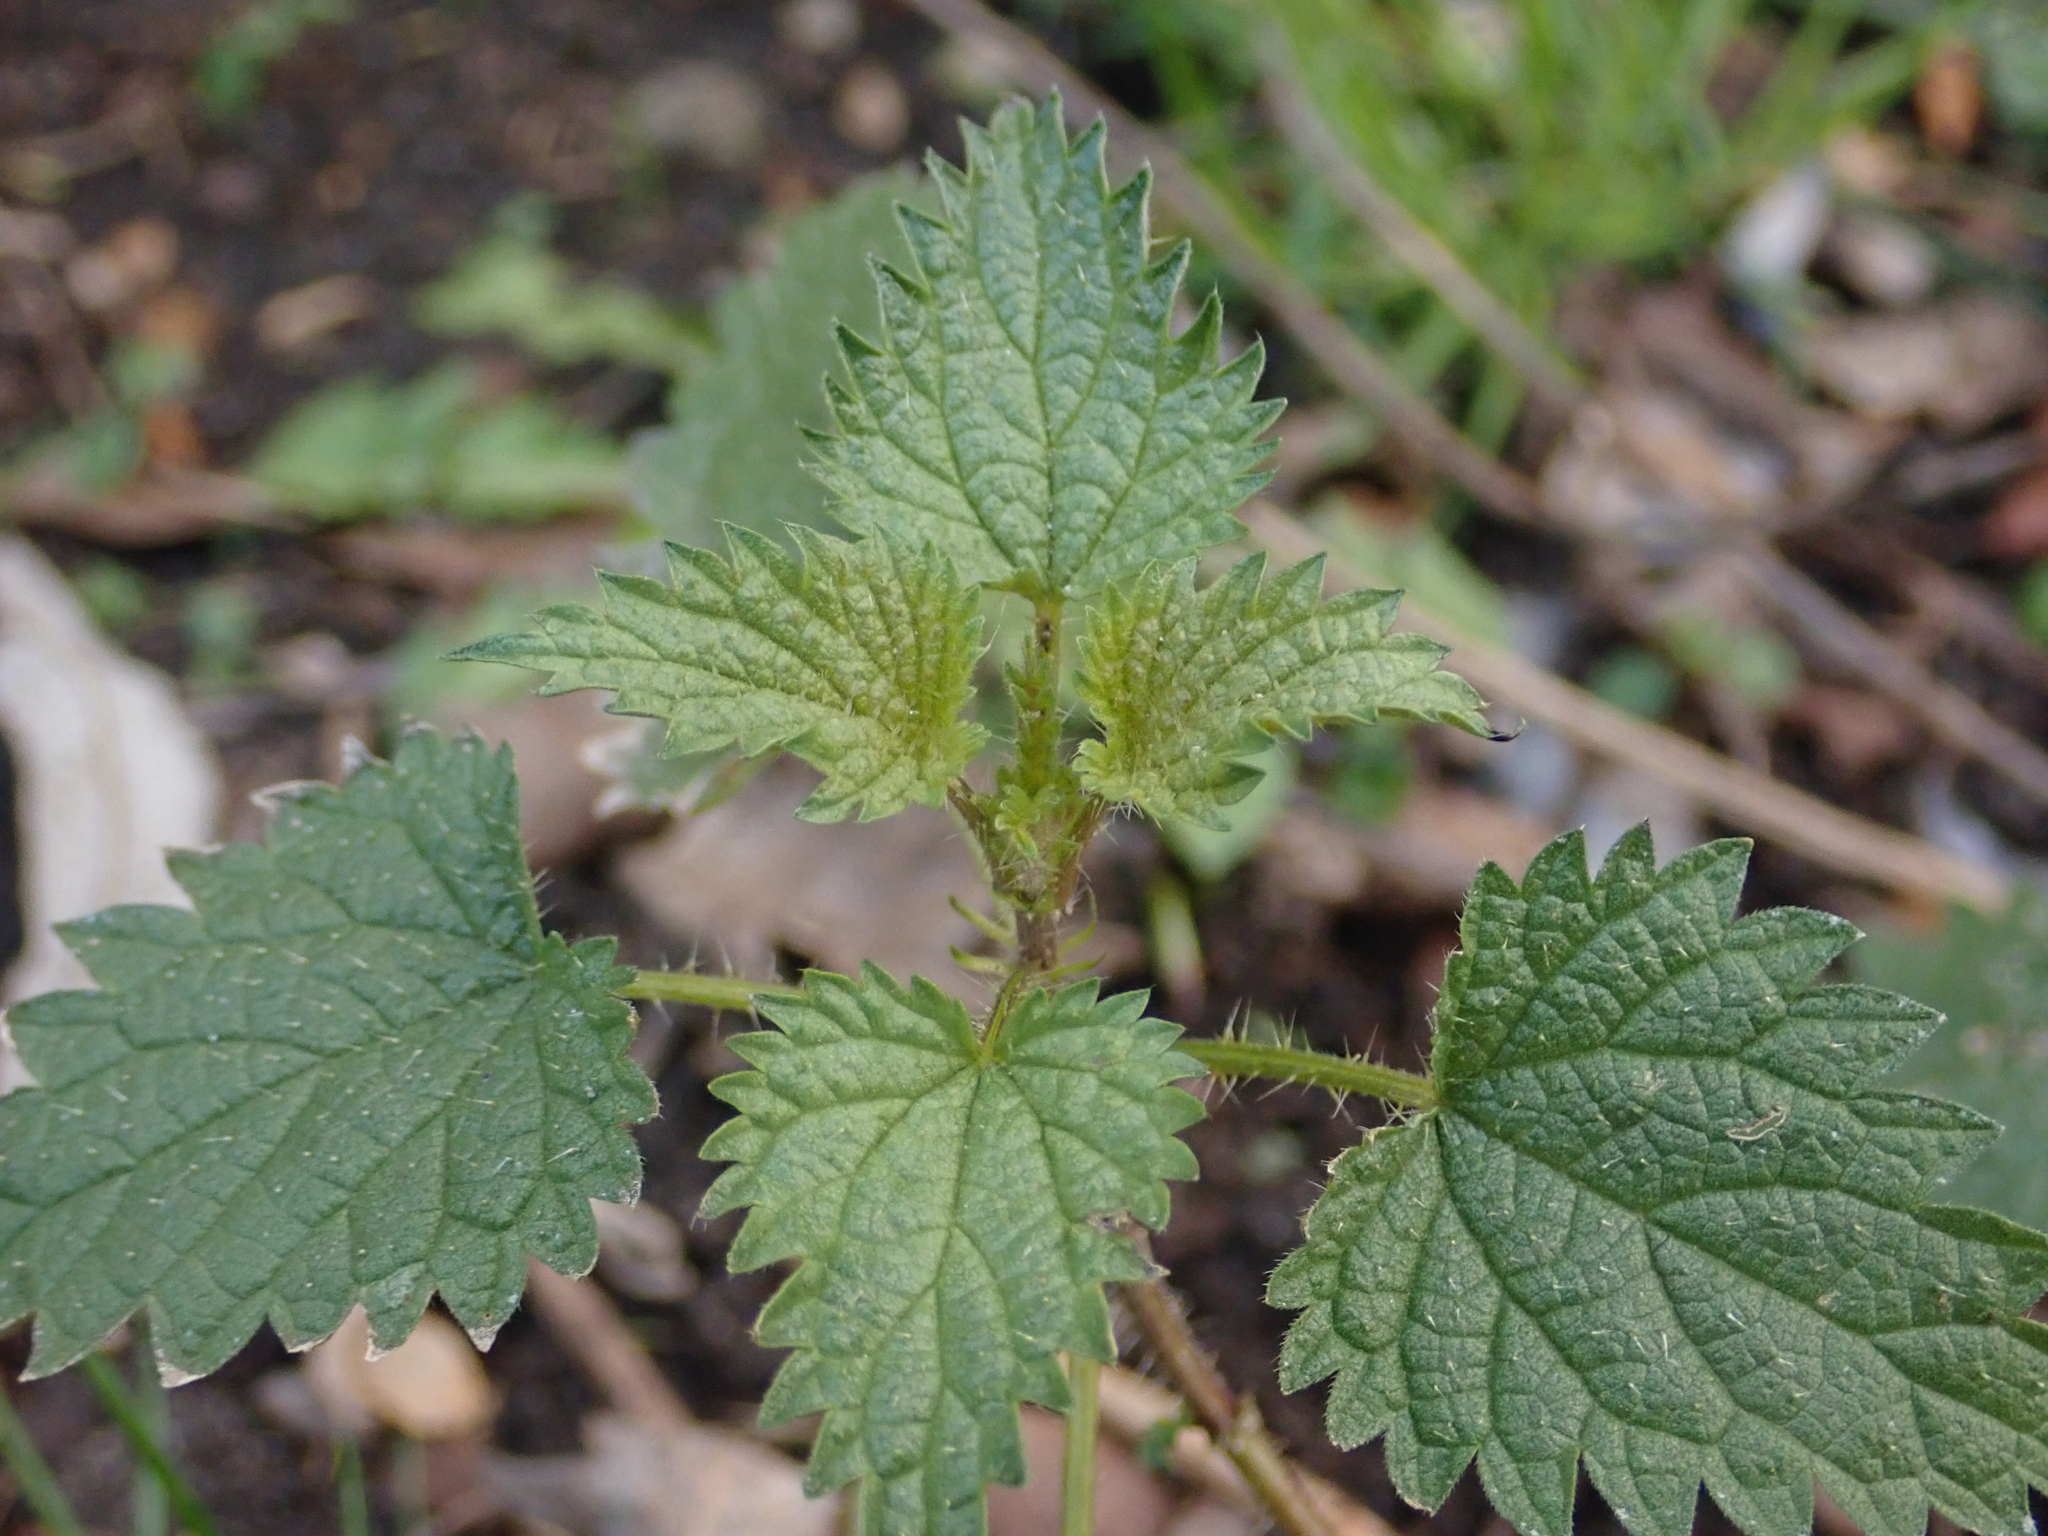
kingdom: Plantae
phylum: Tracheophyta
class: Magnoliopsida
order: Rosales
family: Urticaceae
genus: Urtica
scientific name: Urtica dioica
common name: Common nettle
